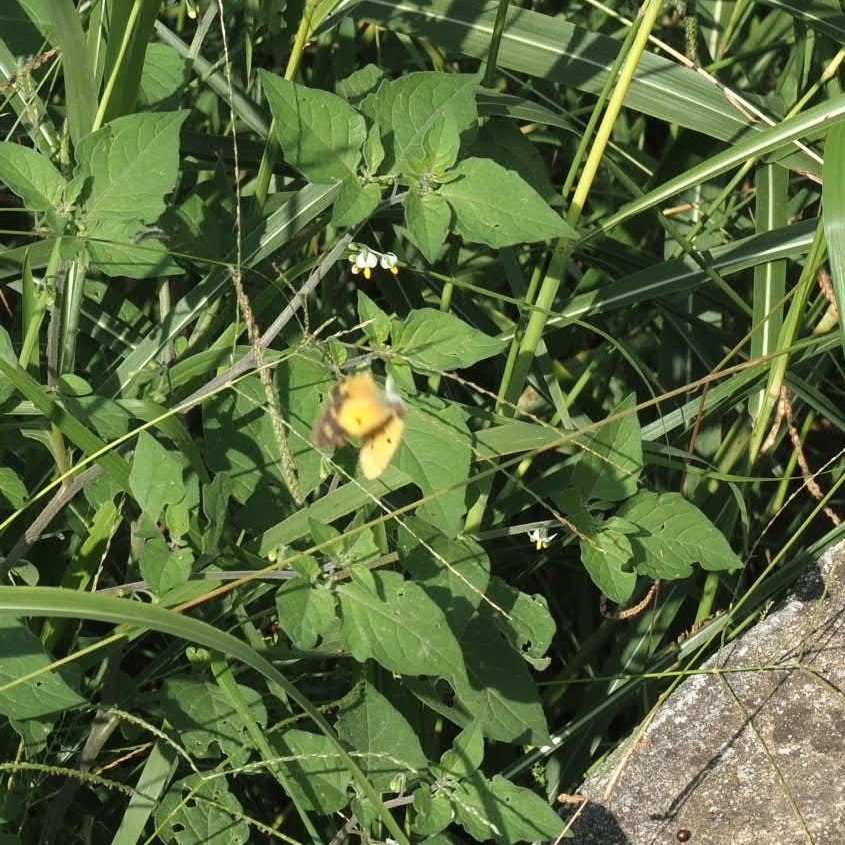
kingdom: Animalia
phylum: Arthropoda
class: Insecta
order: Lepidoptera
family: Pieridae
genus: Colias
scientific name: Colias croceus
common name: Clouded yellow
